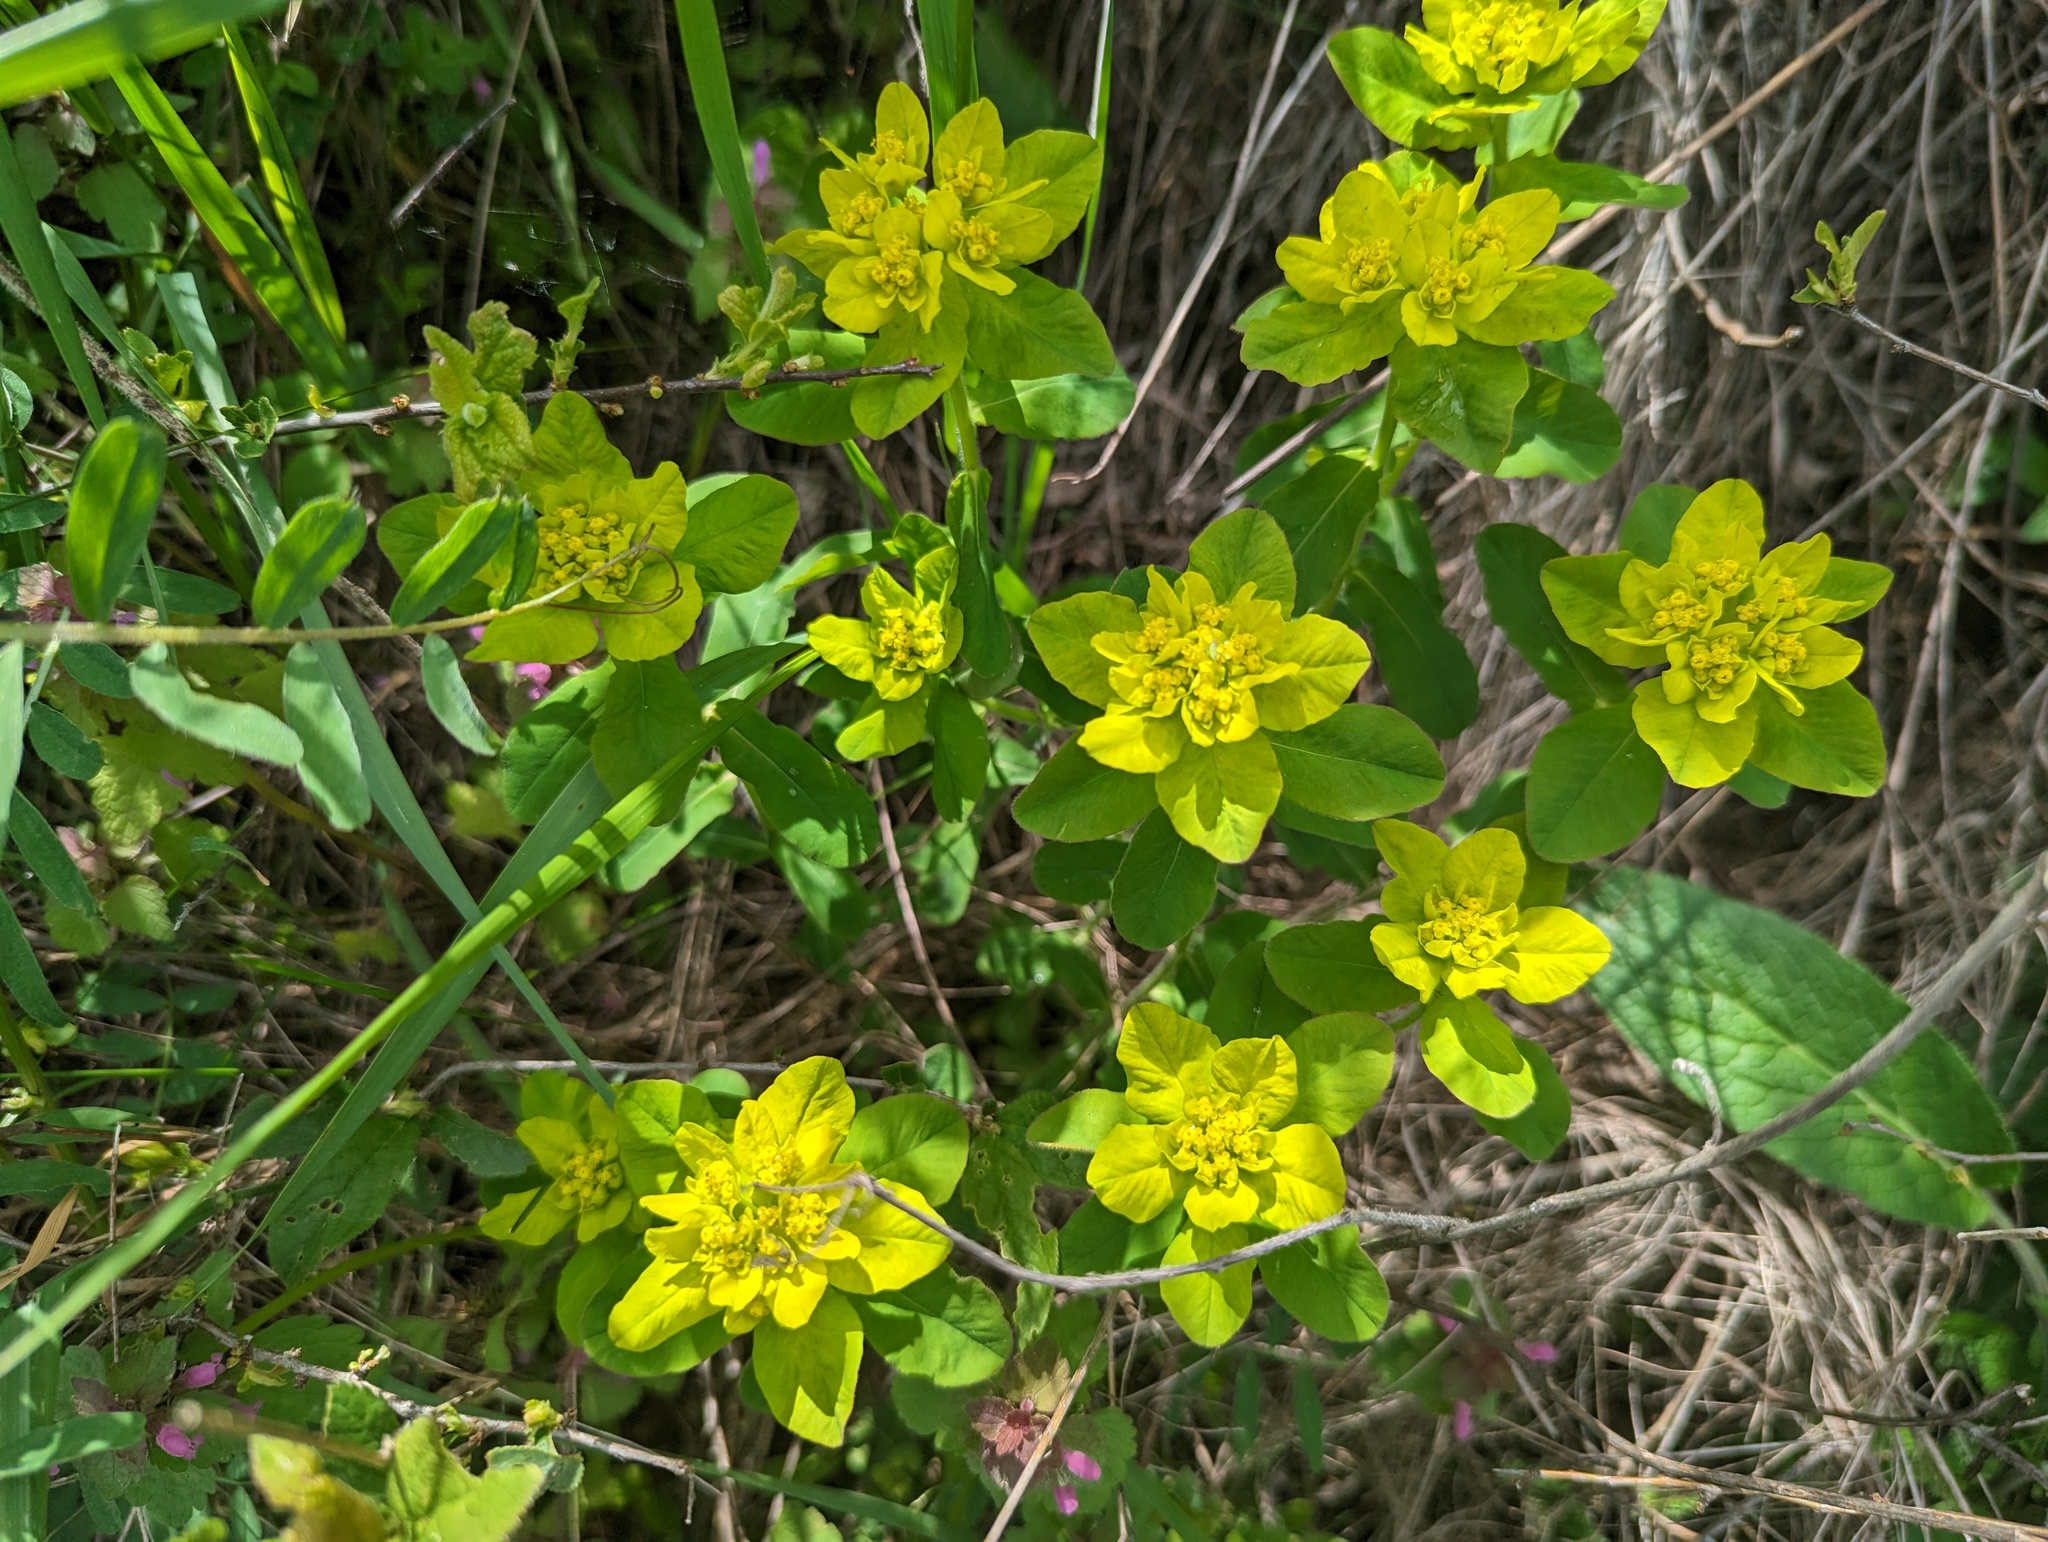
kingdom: Plantae
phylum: Tracheophyta
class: Magnoliopsida
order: Malpighiales
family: Euphorbiaceae
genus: Euphorbia
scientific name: Euphorbia epithymoides
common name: Cushion spurge
